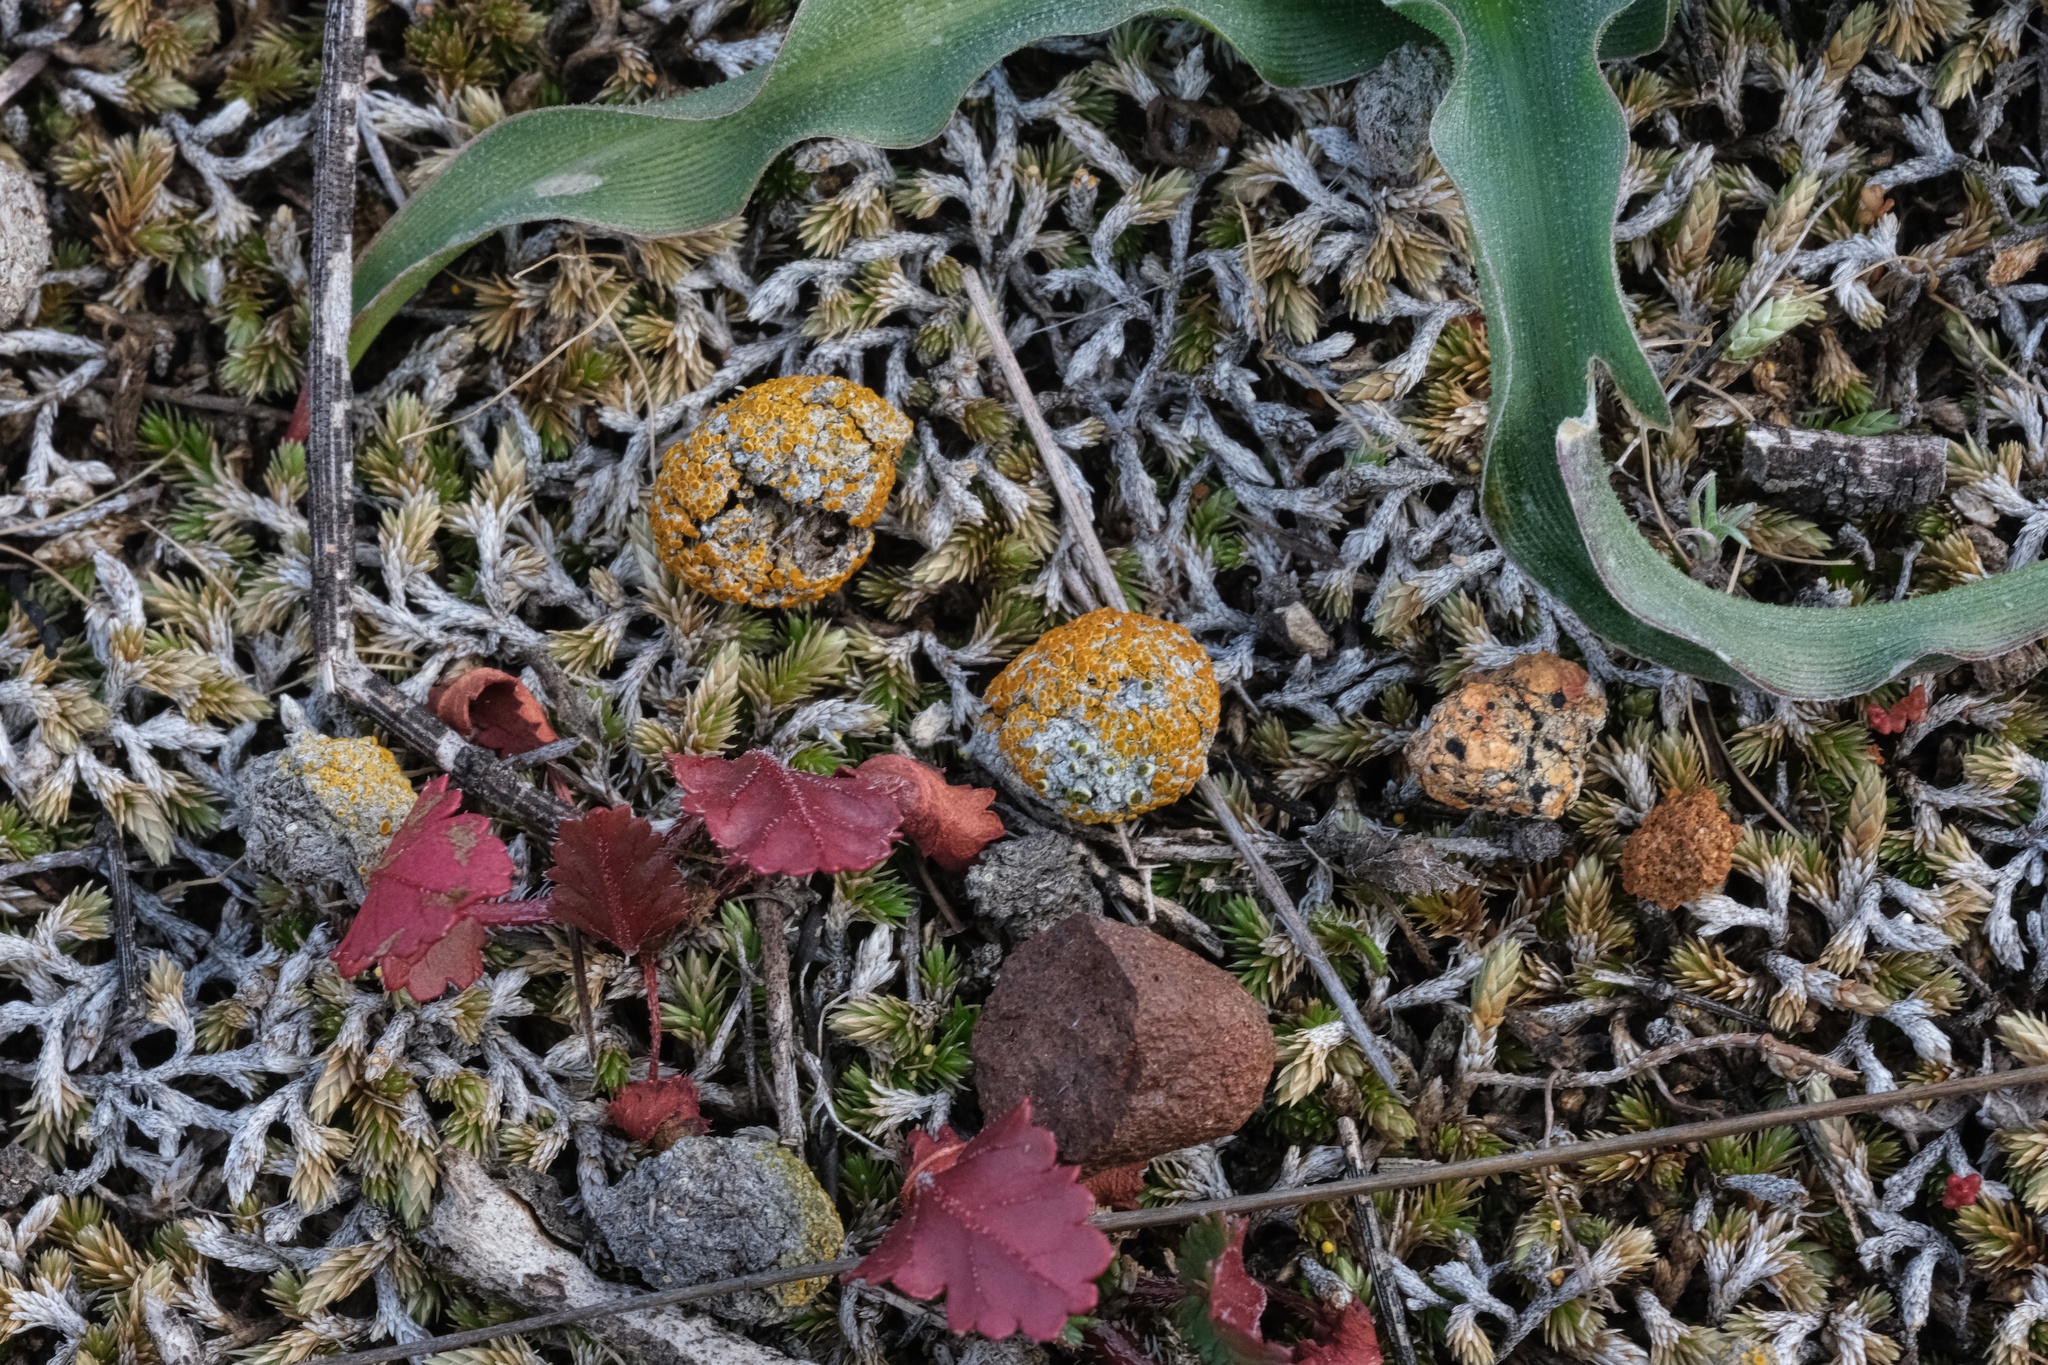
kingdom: Fungi
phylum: Ascomycota
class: Lecanoromycetes
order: Teloschistales
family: Teloschistaceae
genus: Caloplaca
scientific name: Caloplaca subpyracella
